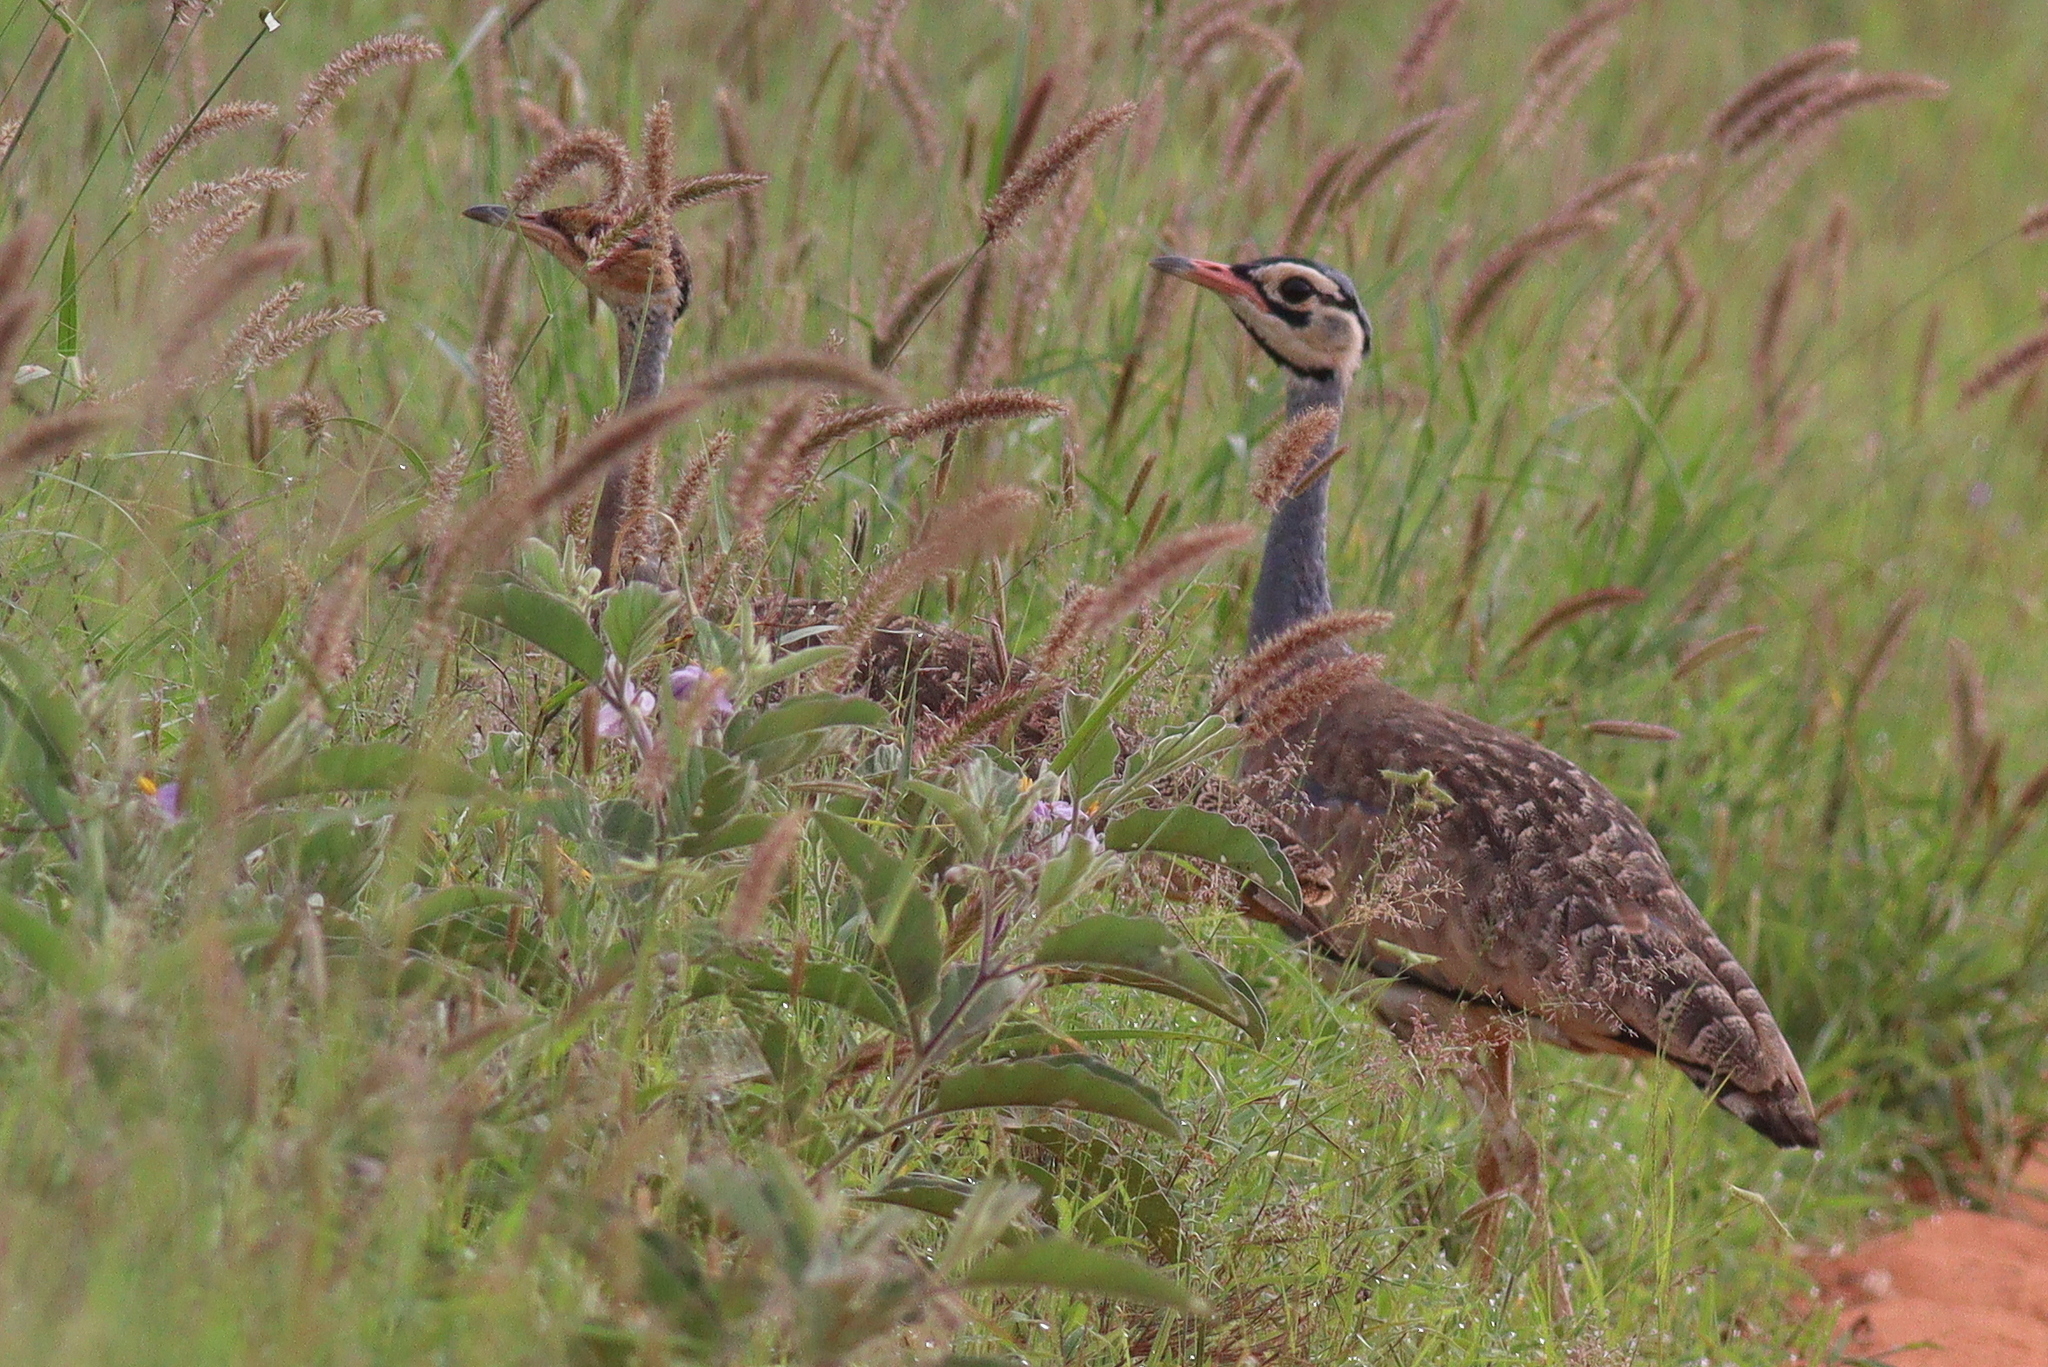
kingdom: Animalia
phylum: Chordata
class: Aves
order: Otidiformes
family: Otididae
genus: Eupodotis
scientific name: Eupodotis senegalensis
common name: White-bellied bustard
